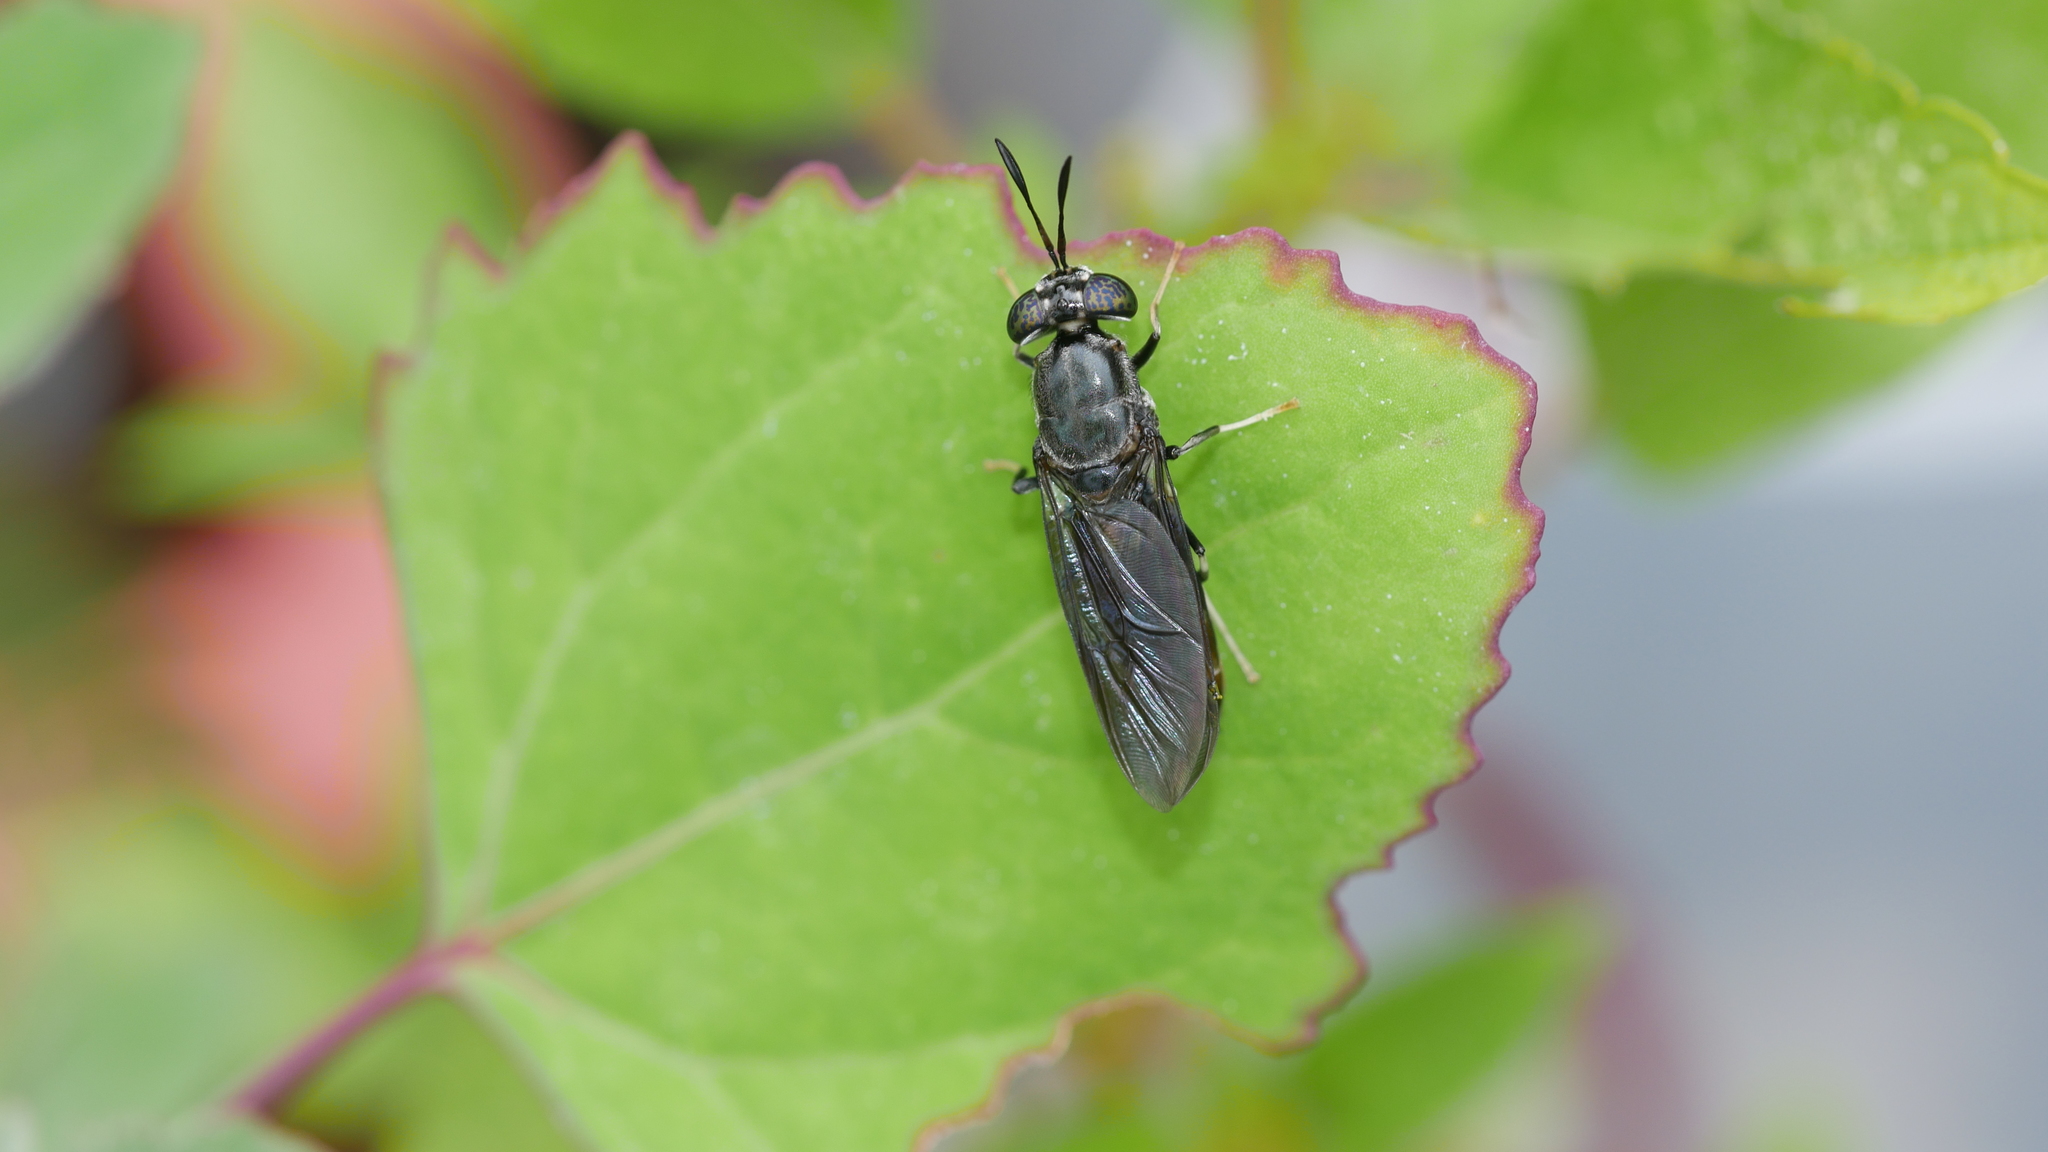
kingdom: Animalia
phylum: Arthropoda
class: Insecta
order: Diptera
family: Stratiomyidae
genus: Hermetia
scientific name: Hermetia illucens
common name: Black soldier fly
